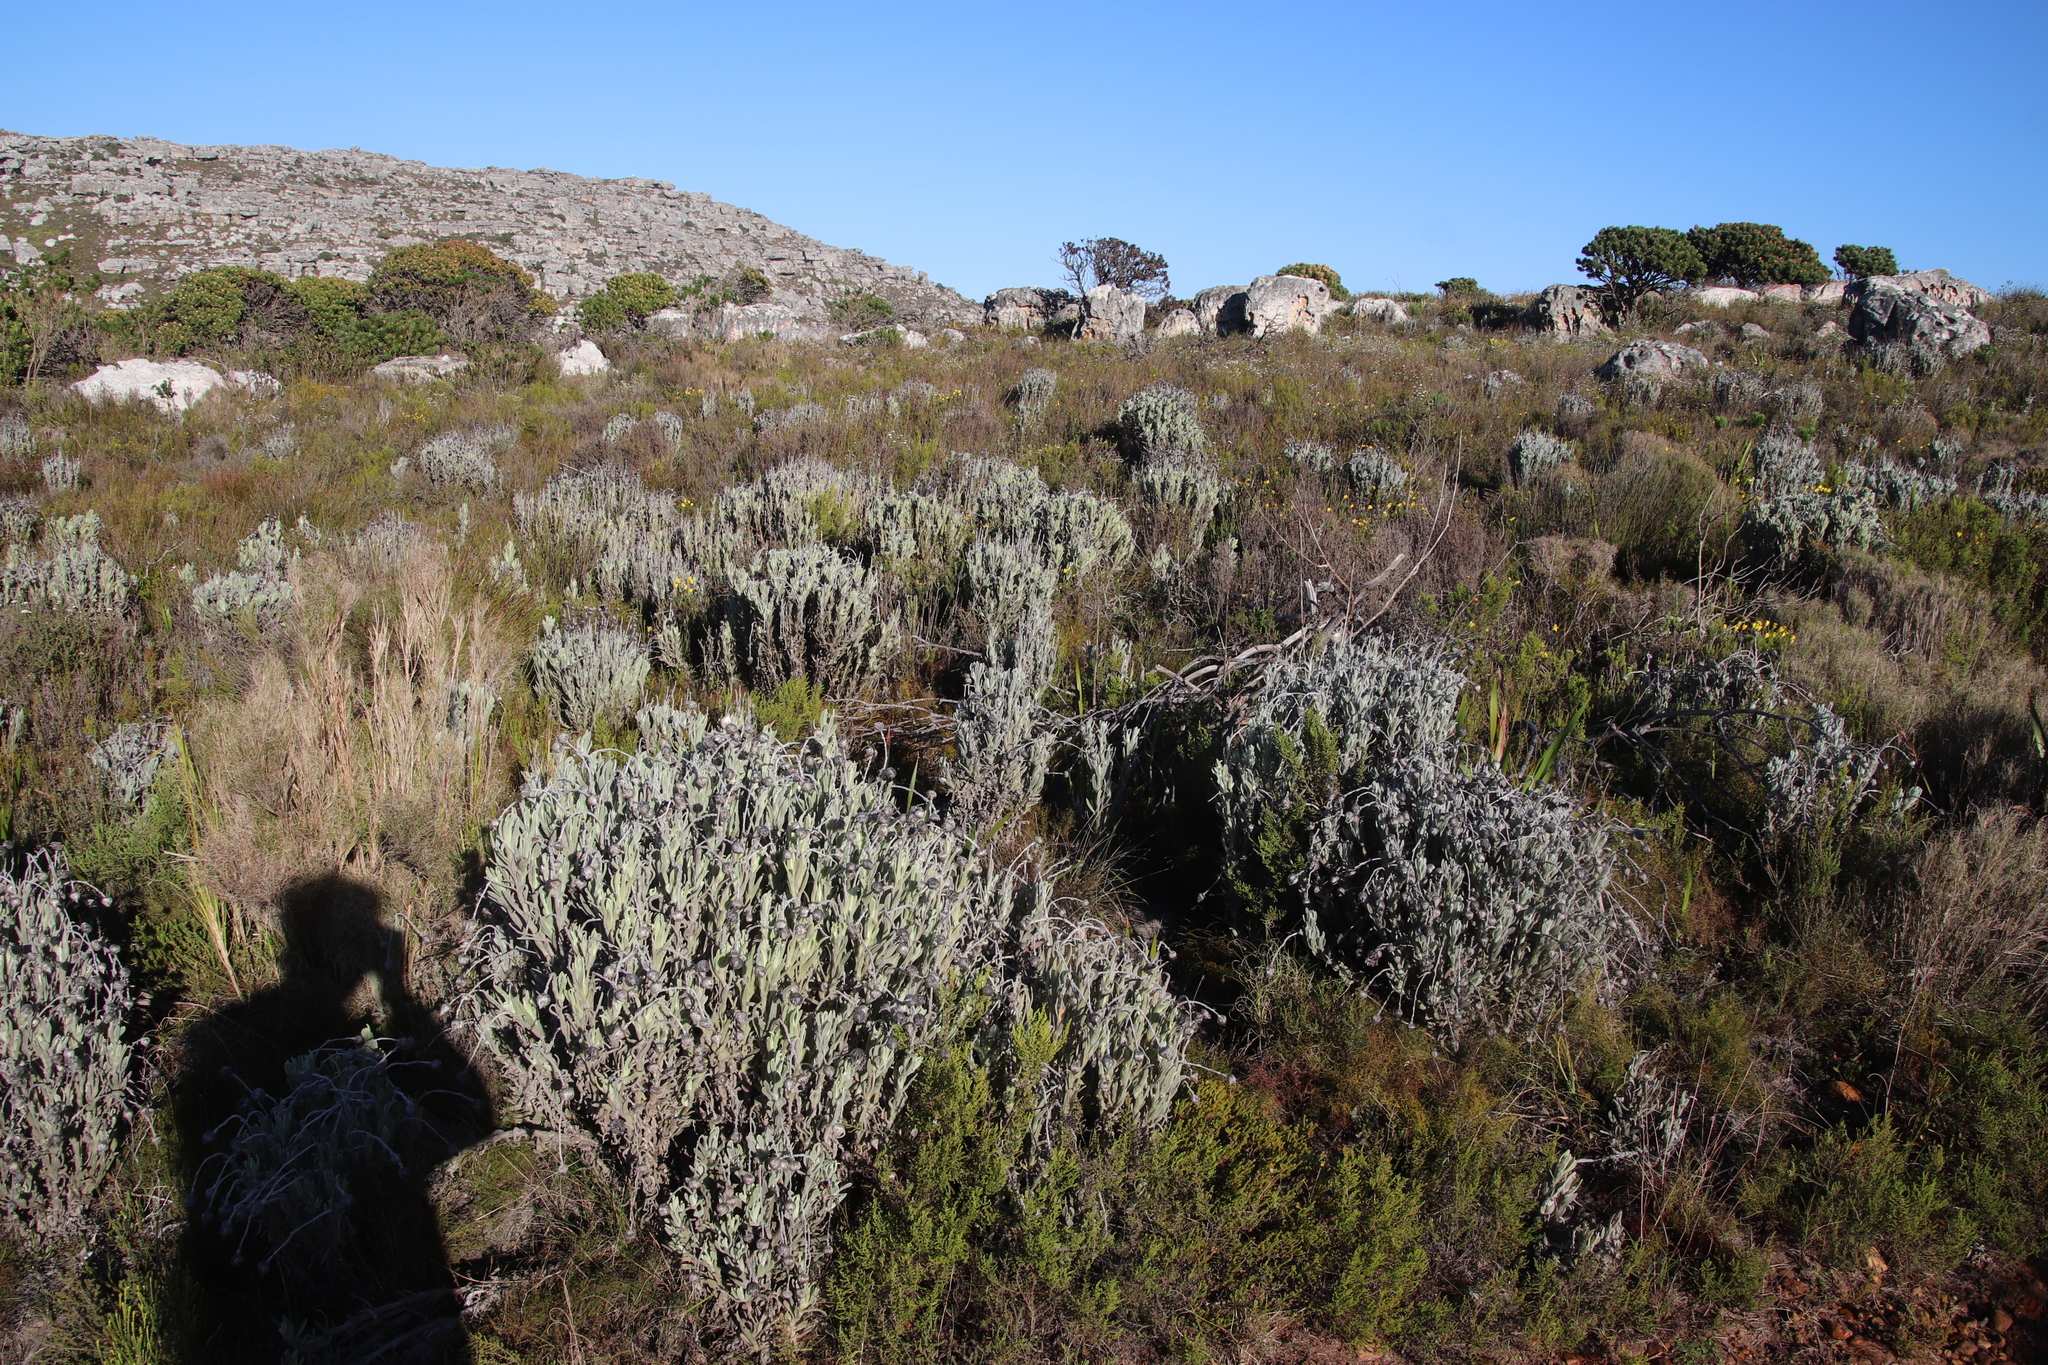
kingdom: Plantae
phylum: Tracheophyta
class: Magnoliopsida
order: Asterales
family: Asteraceae
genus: Syncarpha
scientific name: Syncarpha vestita
